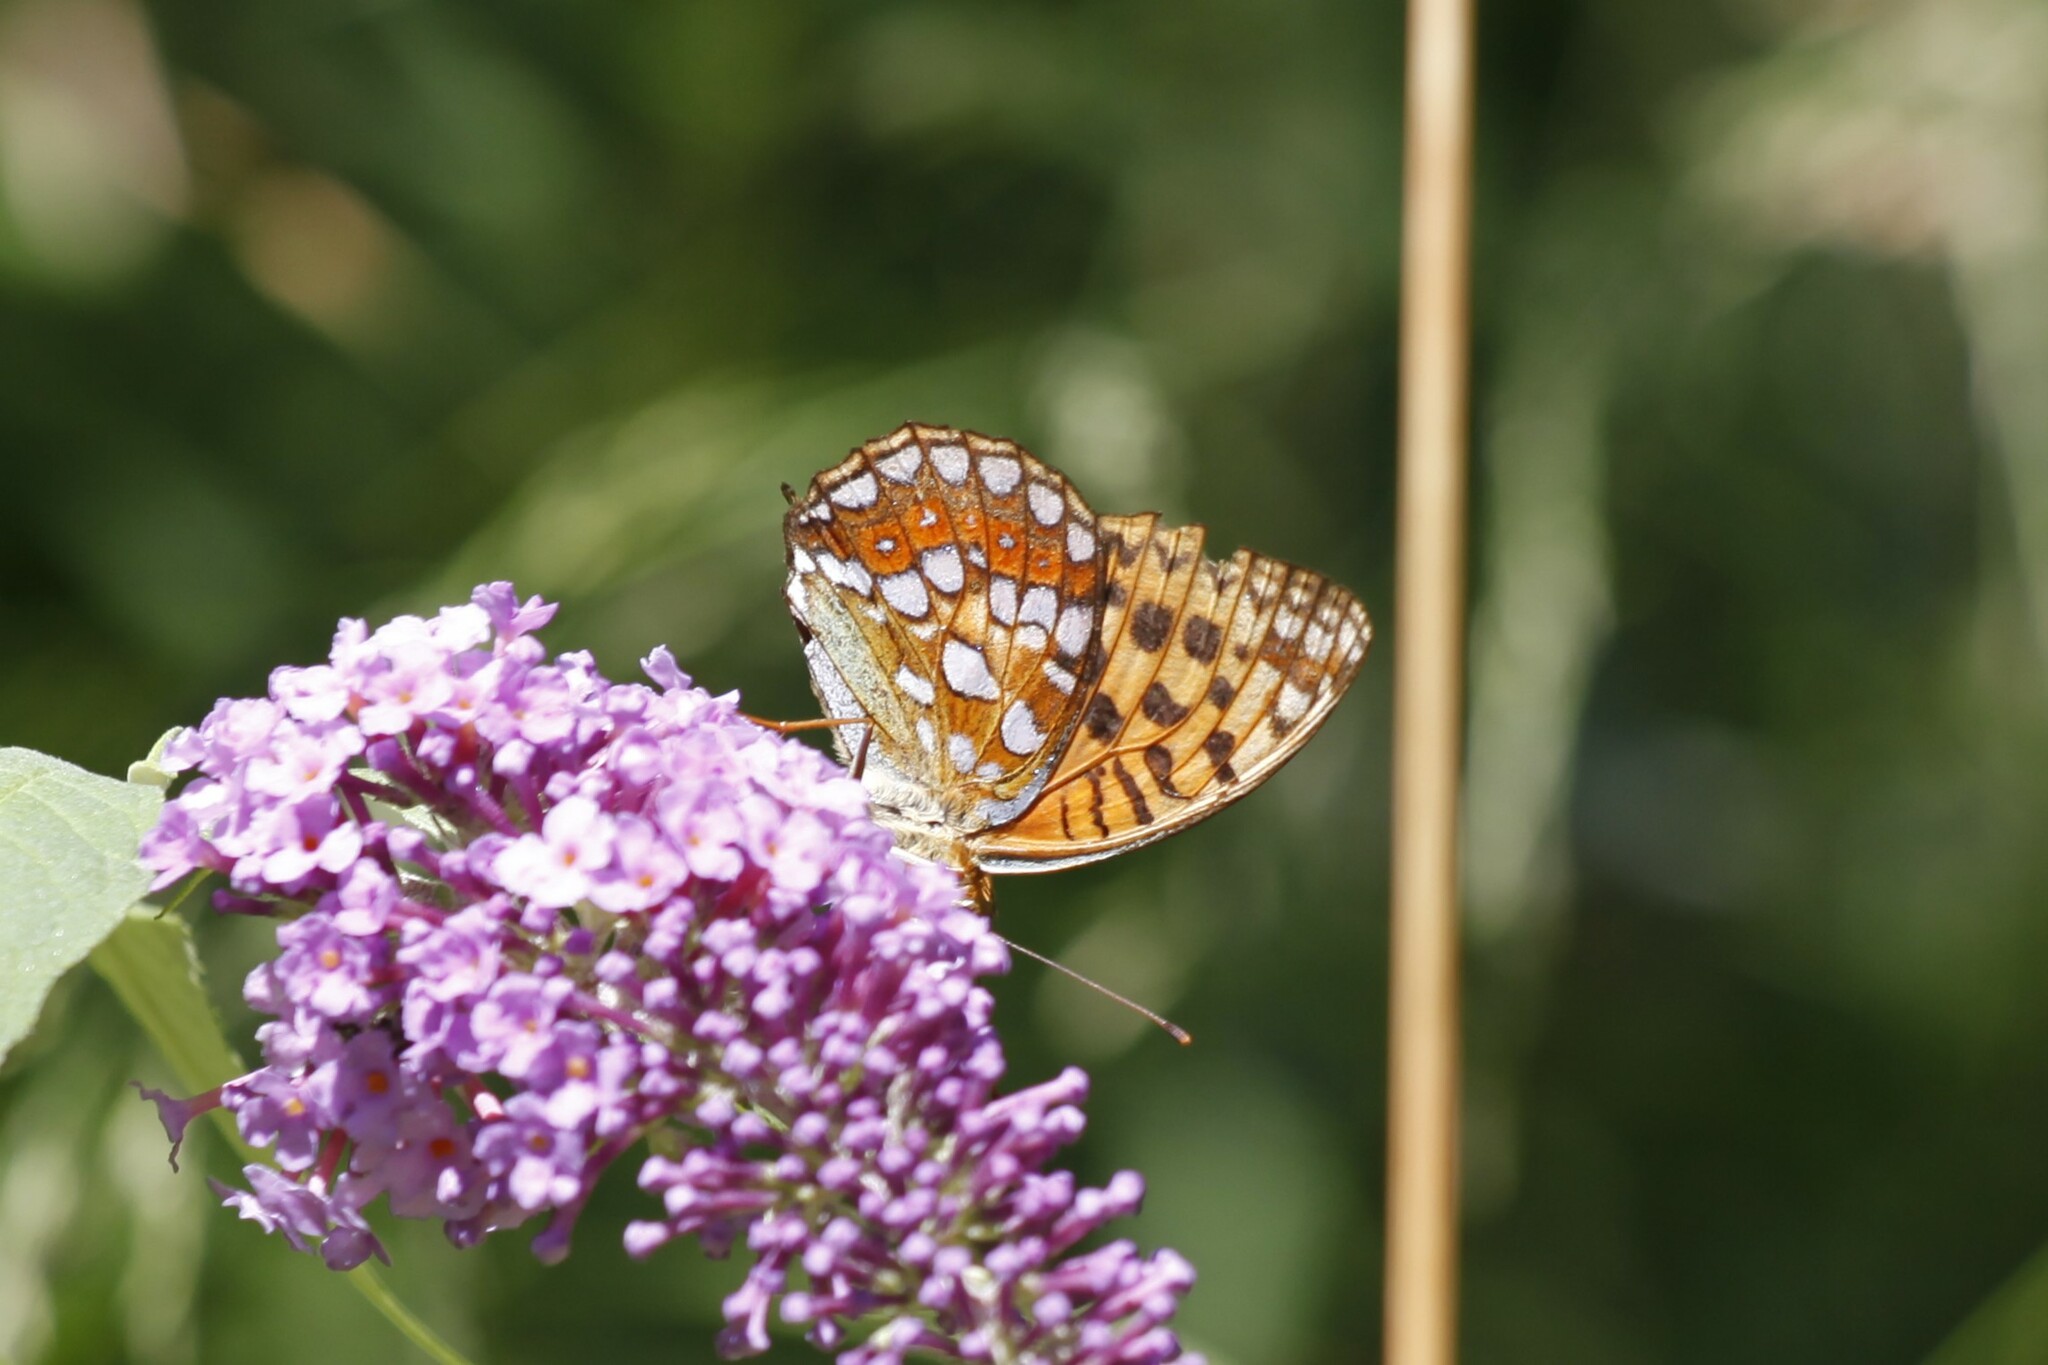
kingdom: Animalia
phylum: Arthropoda
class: Insecta
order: Lepidoptera
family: Nymphalidae
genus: Fabriciana
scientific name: Fabriciana adippe
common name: High brown fritillary
